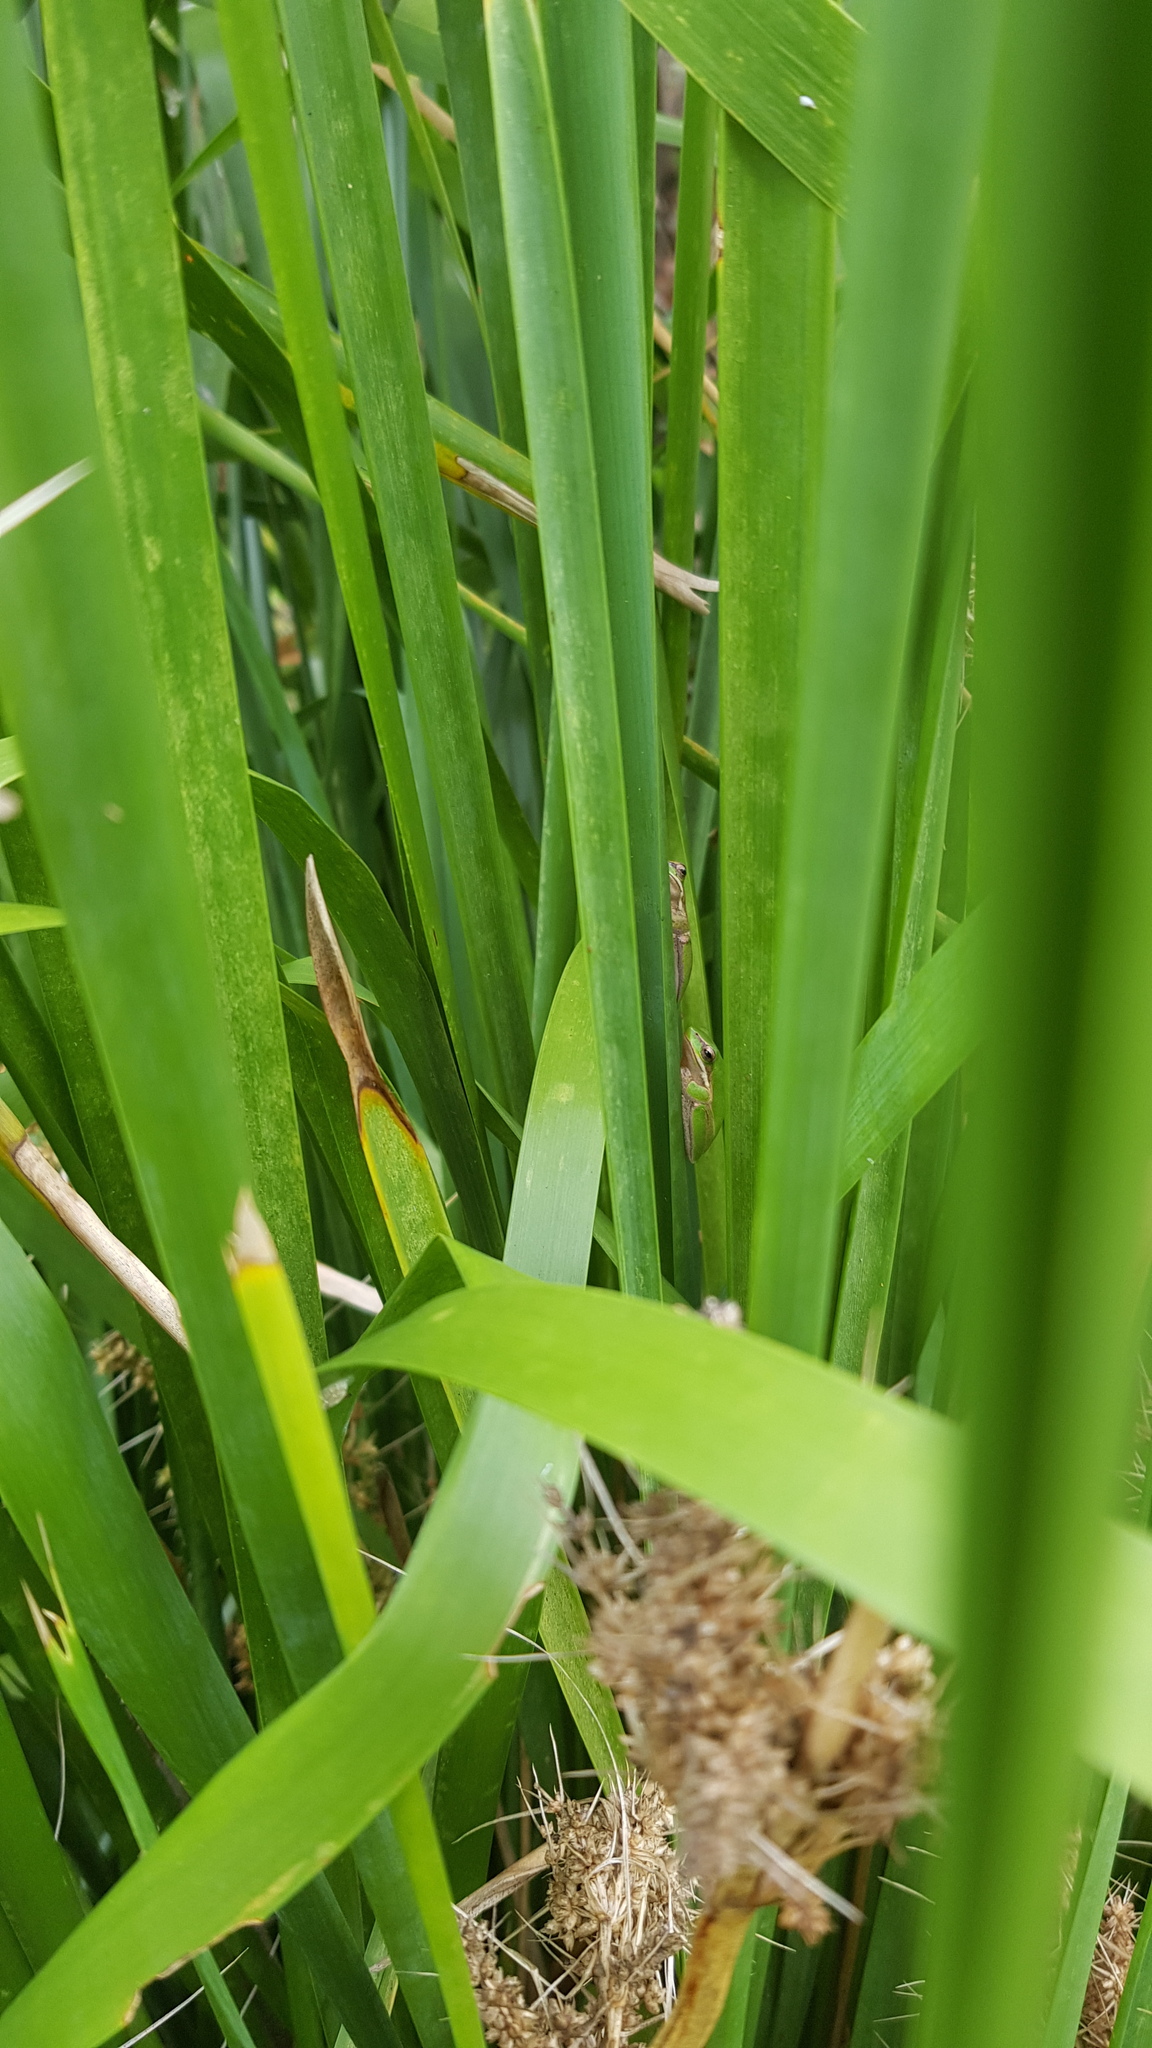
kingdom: Animalia
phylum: Chordata
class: Amphibia
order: Anura
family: Pelodryadidae
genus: Litoria
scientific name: Litoria fallax
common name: Eastern dwarf treefrog
